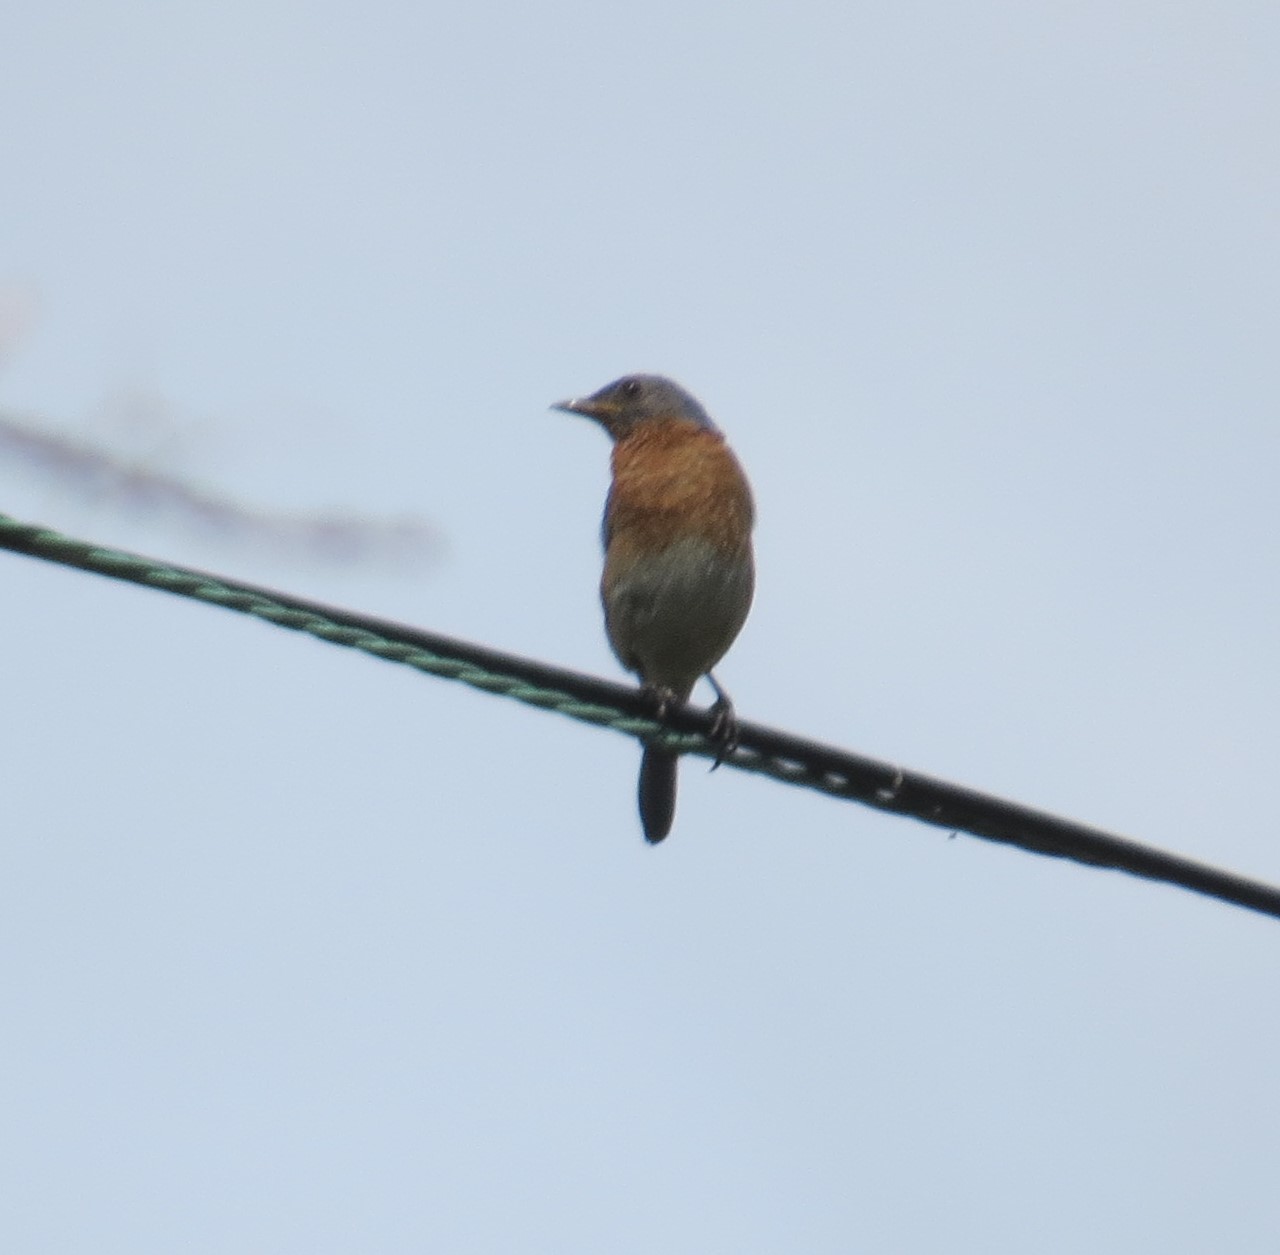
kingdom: Animalia
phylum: Chordata
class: Aves
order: Passeriformes
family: Turdidae
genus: Sialia
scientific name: Sialia sialis
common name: Eastern bluebird
